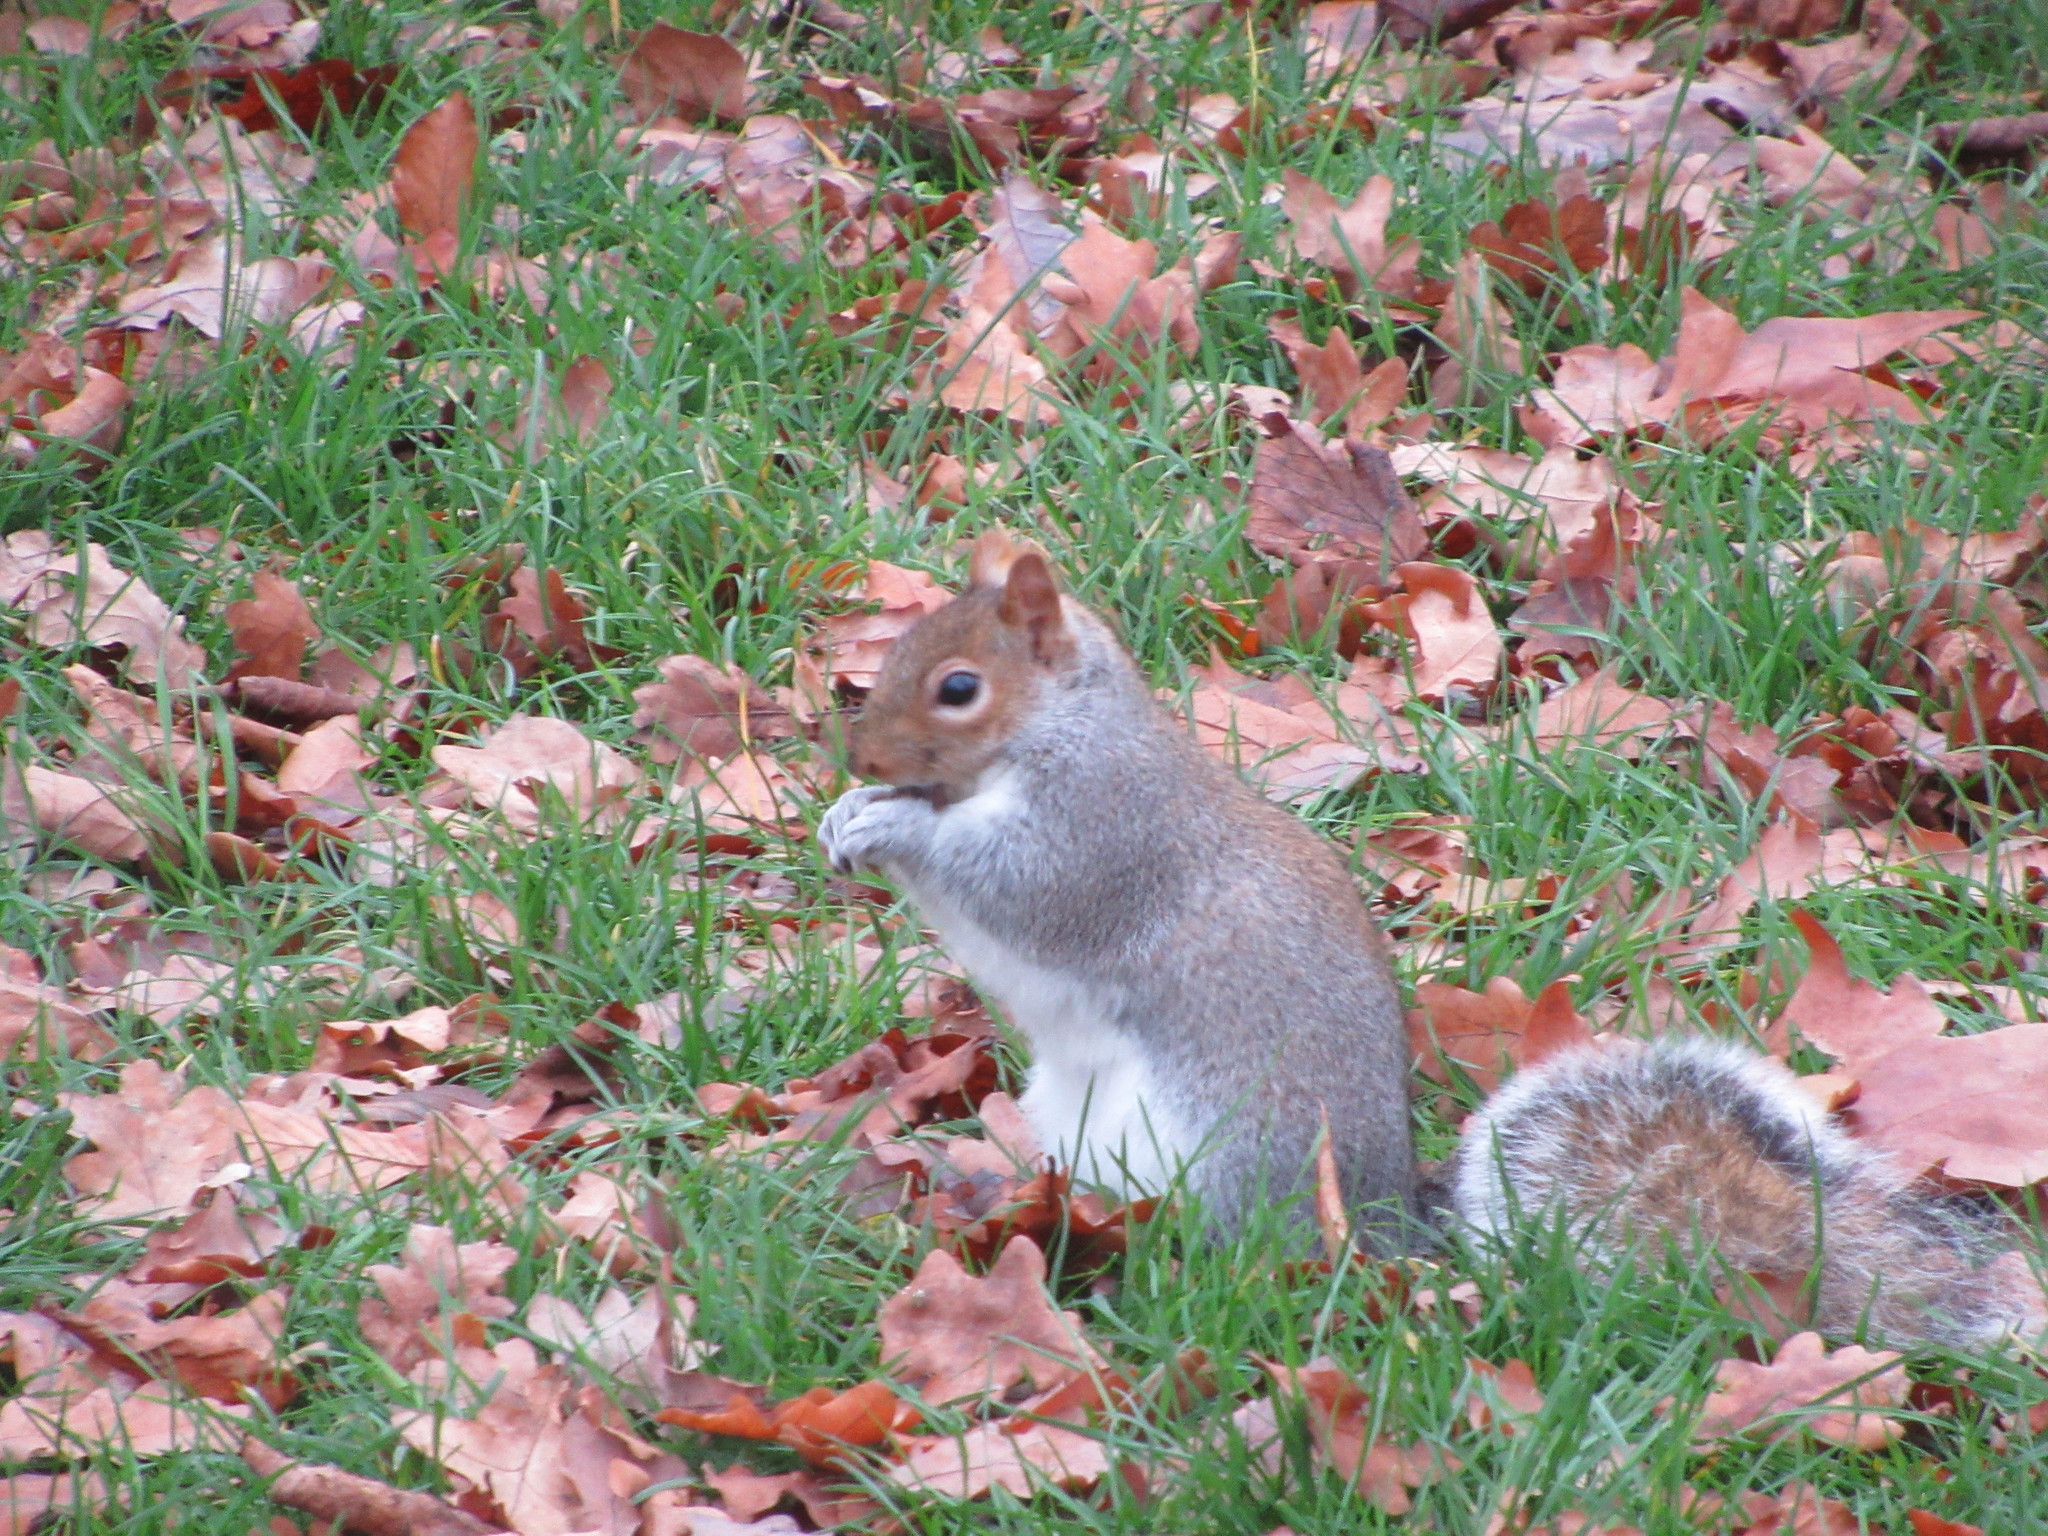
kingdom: Animalia
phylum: Chordata
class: Mammalia
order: Rodentia
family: Sciuridae
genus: Sciurus
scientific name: Sciurus carolinensis
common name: Eastern gray squirrel
